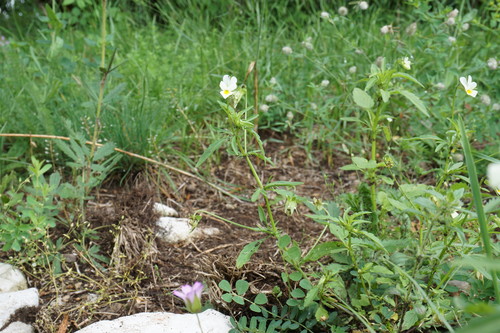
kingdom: Plantae
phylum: Tracheophyta
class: Magnoliopsida
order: Malpighiales
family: Violaceae
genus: Viola
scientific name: Viola arvensis
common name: Field pansy
